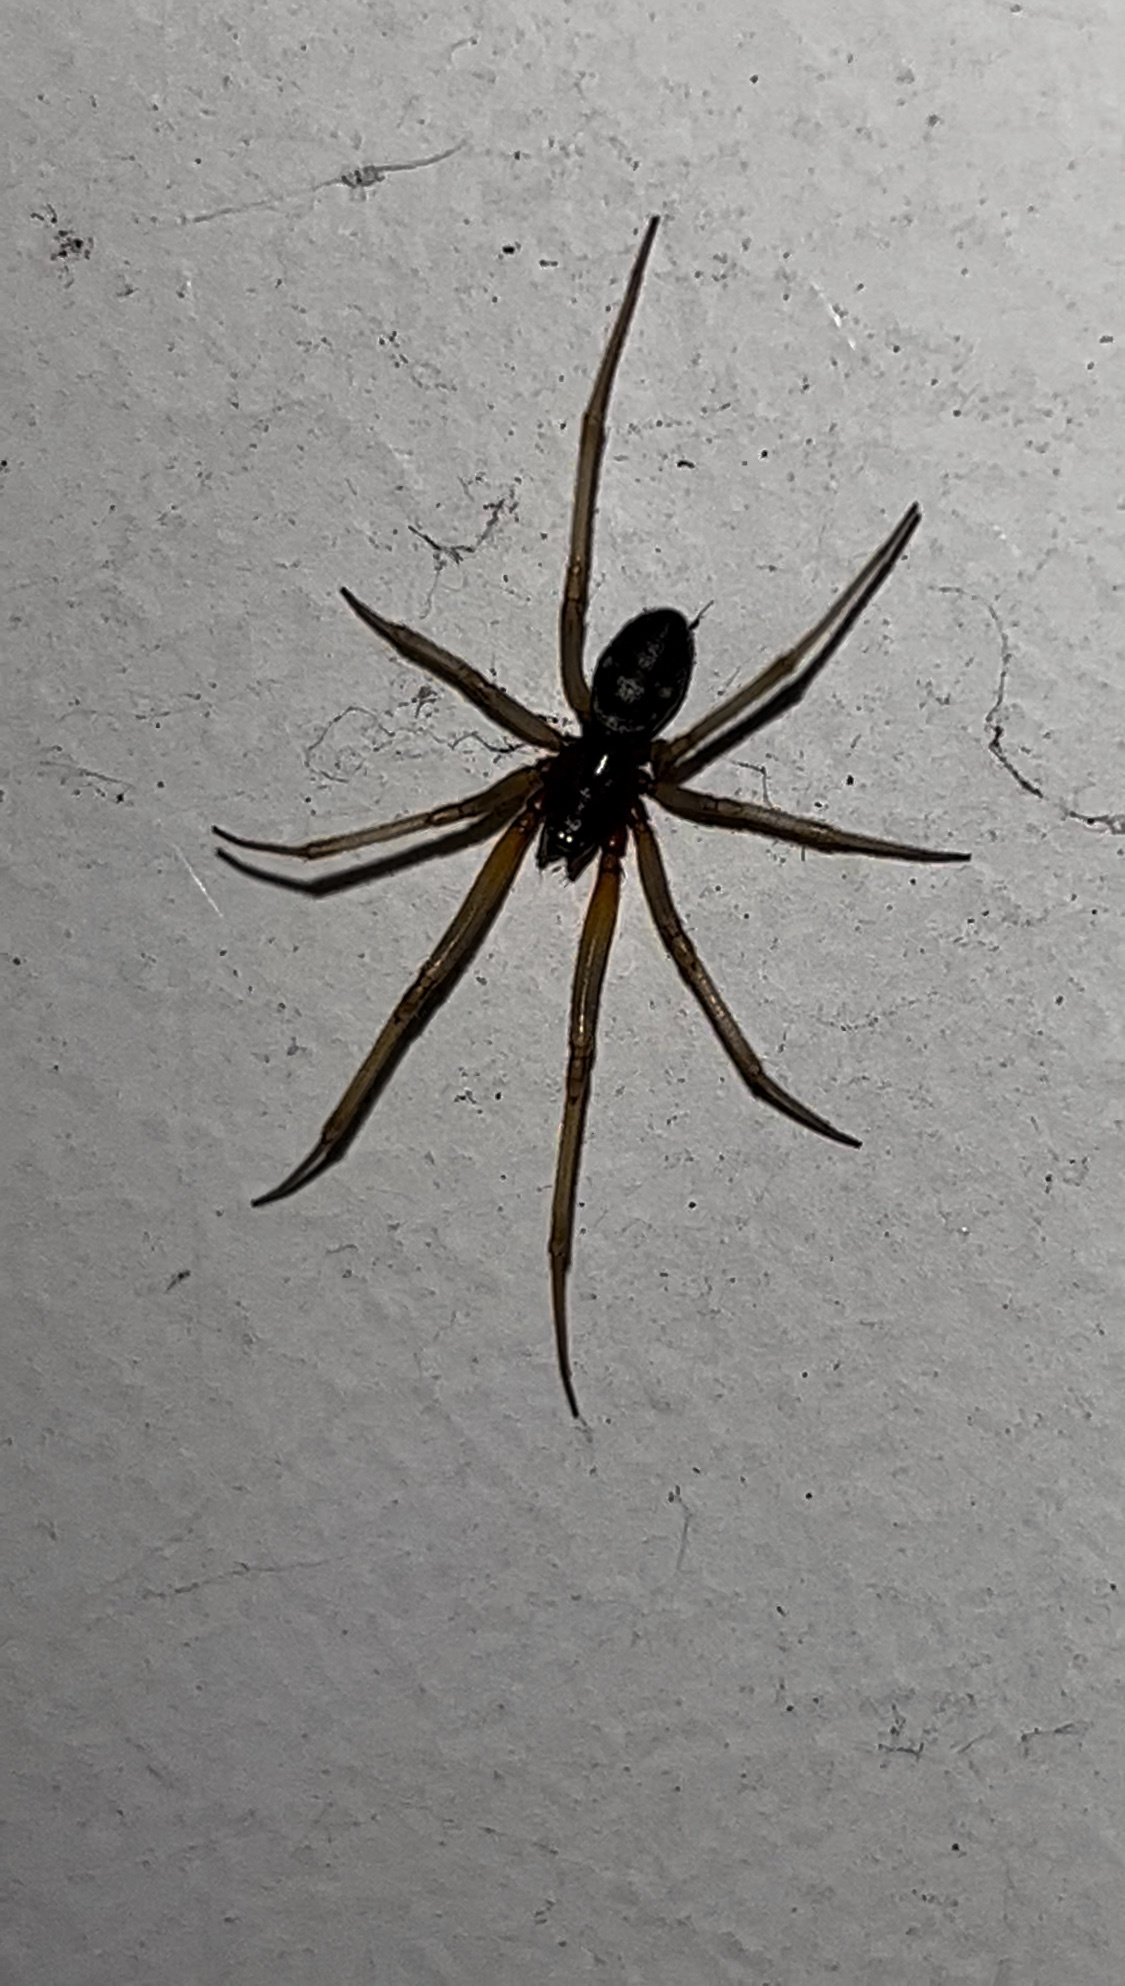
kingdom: Animalia
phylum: Arthropoda
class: Arachnida
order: Araneae
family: Theridiidae
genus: Steatoda
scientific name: Steatoda grossa
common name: False black widow
